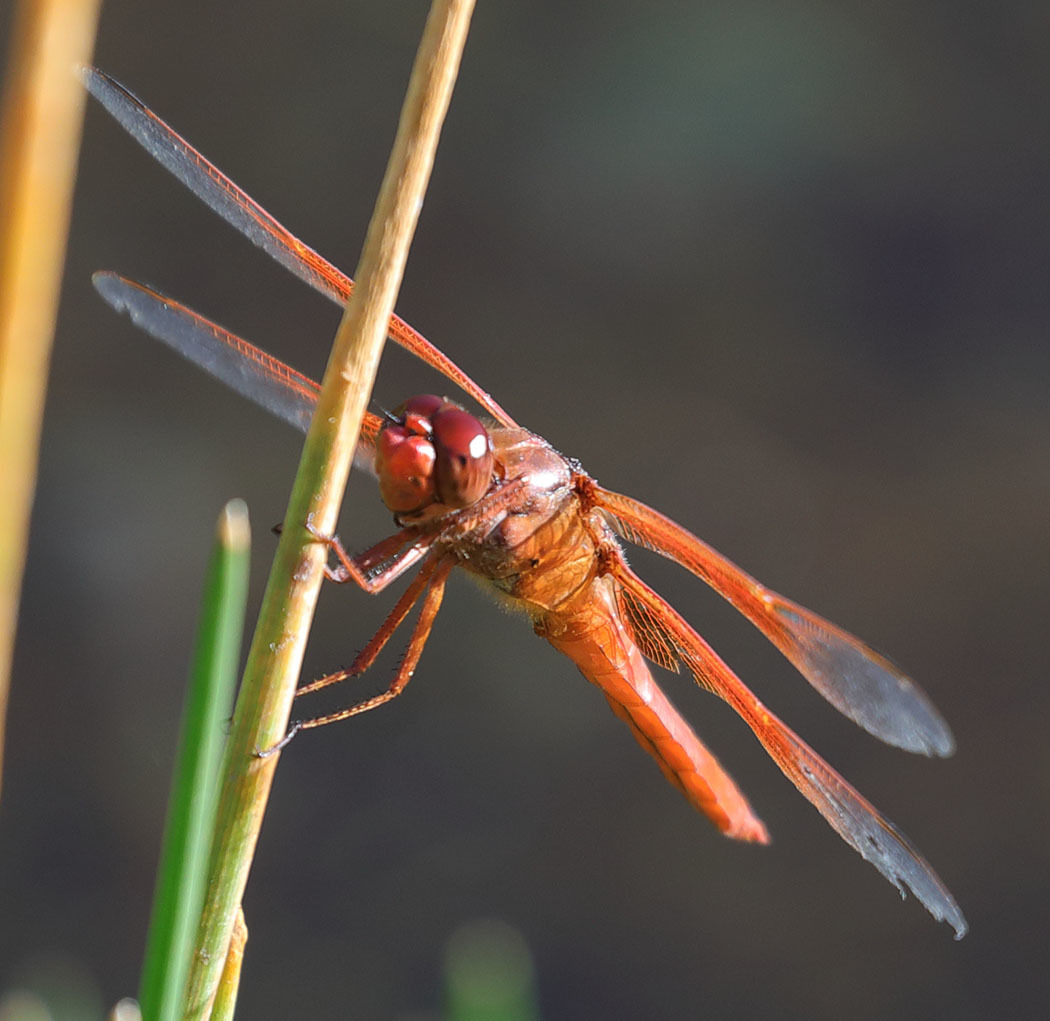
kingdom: Animalia
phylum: Arthropoda
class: Insecta
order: Odonata
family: Libellulidae
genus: Libellula
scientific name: Libellula saturata
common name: Flame skimmer
